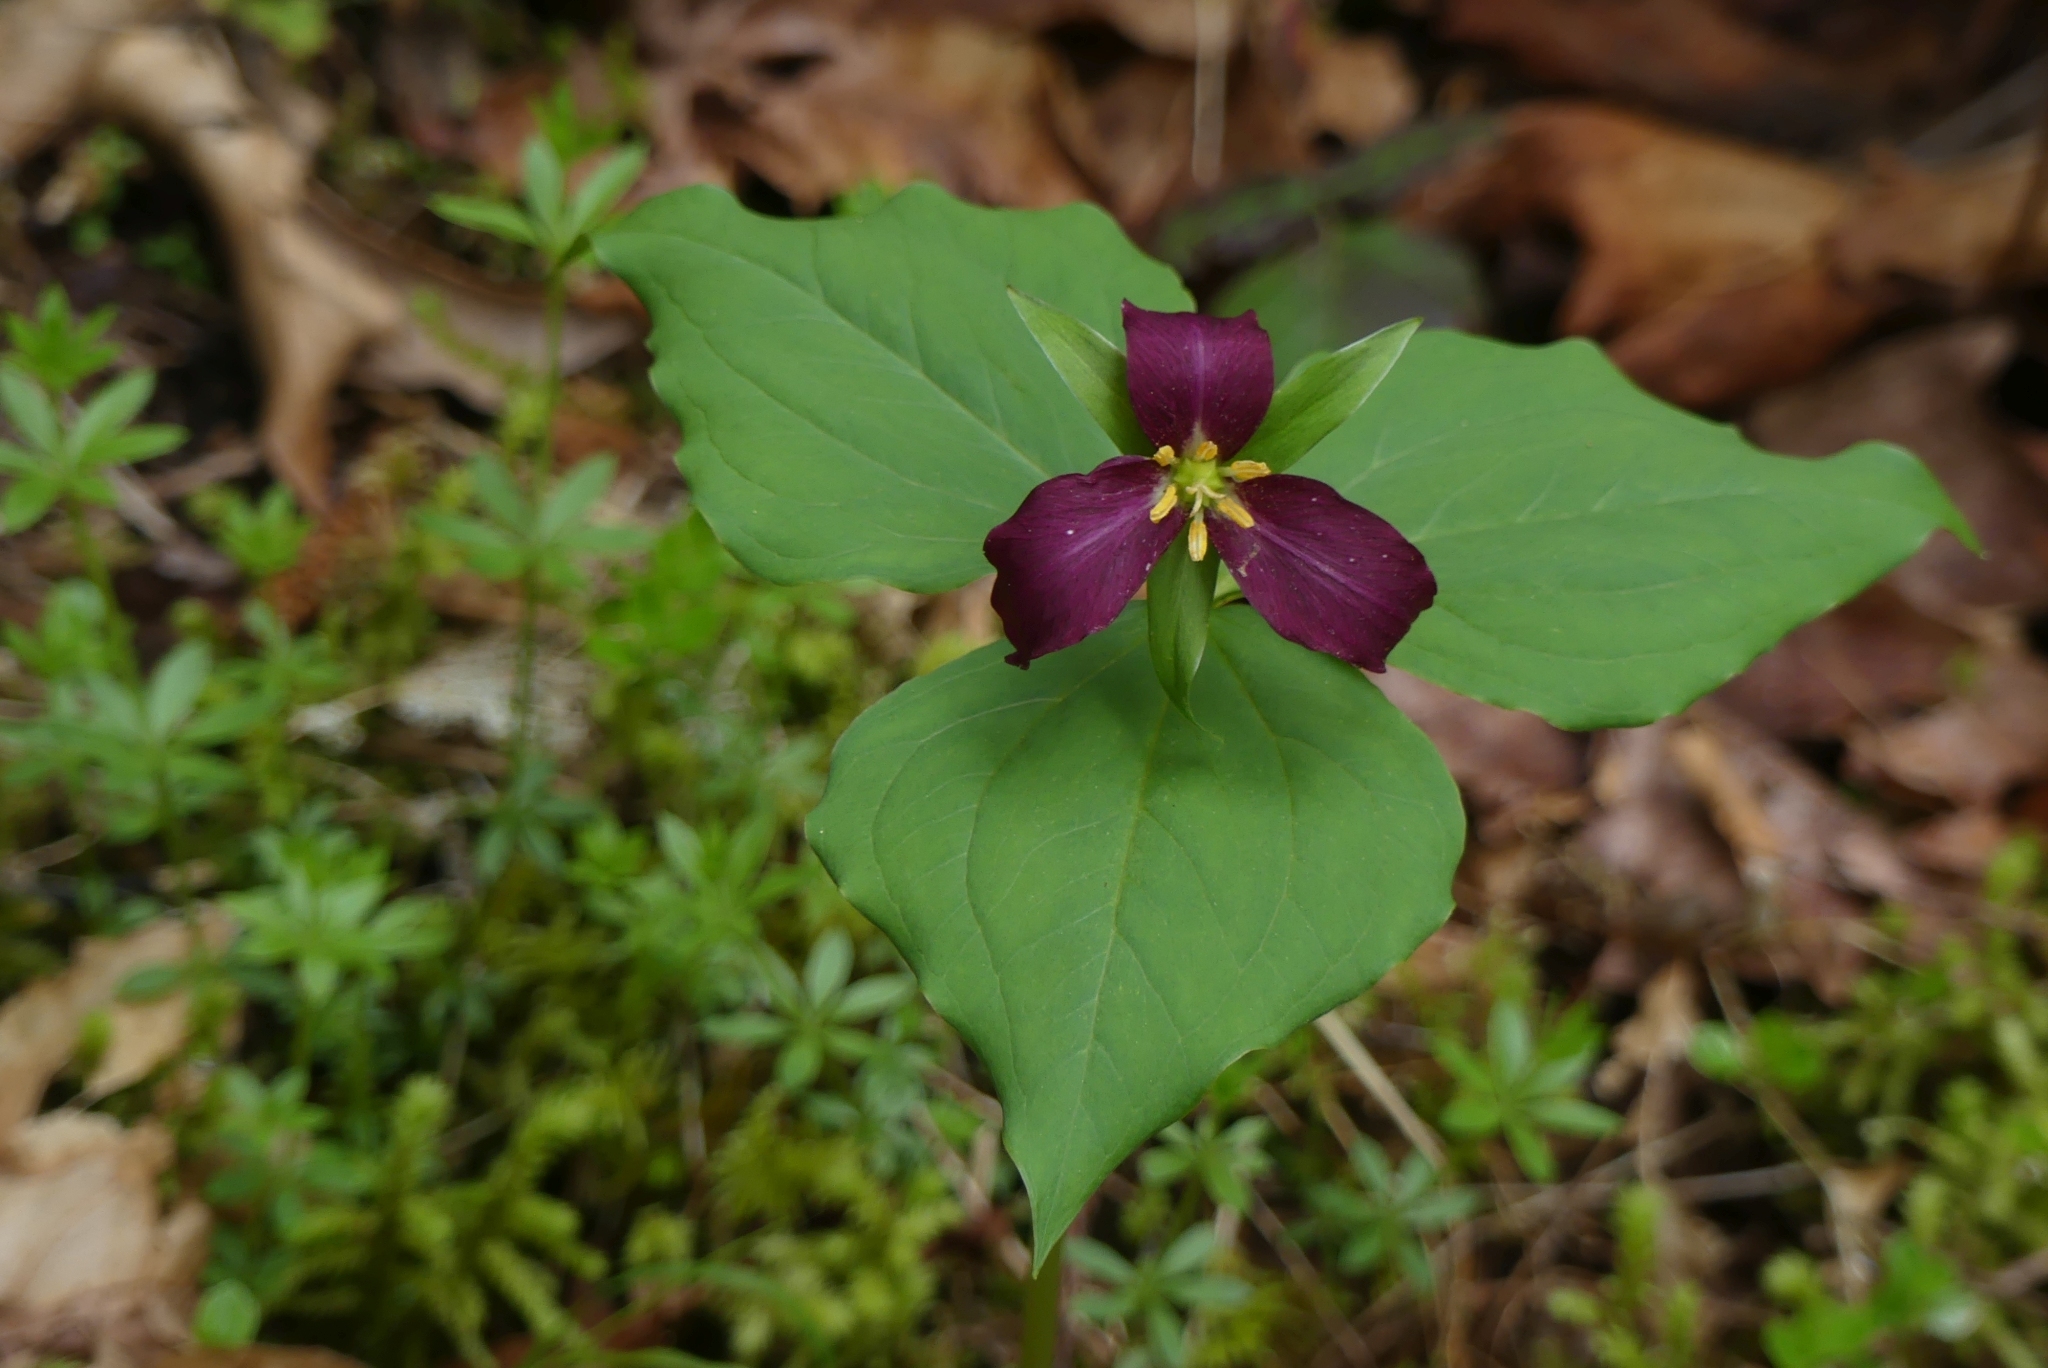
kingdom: Plantae
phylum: Tracheophyta
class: Liliopsida
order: Liliales
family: Melanthiaceae
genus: Trillium
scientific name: Trillium ovatum
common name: Pacific trillium
